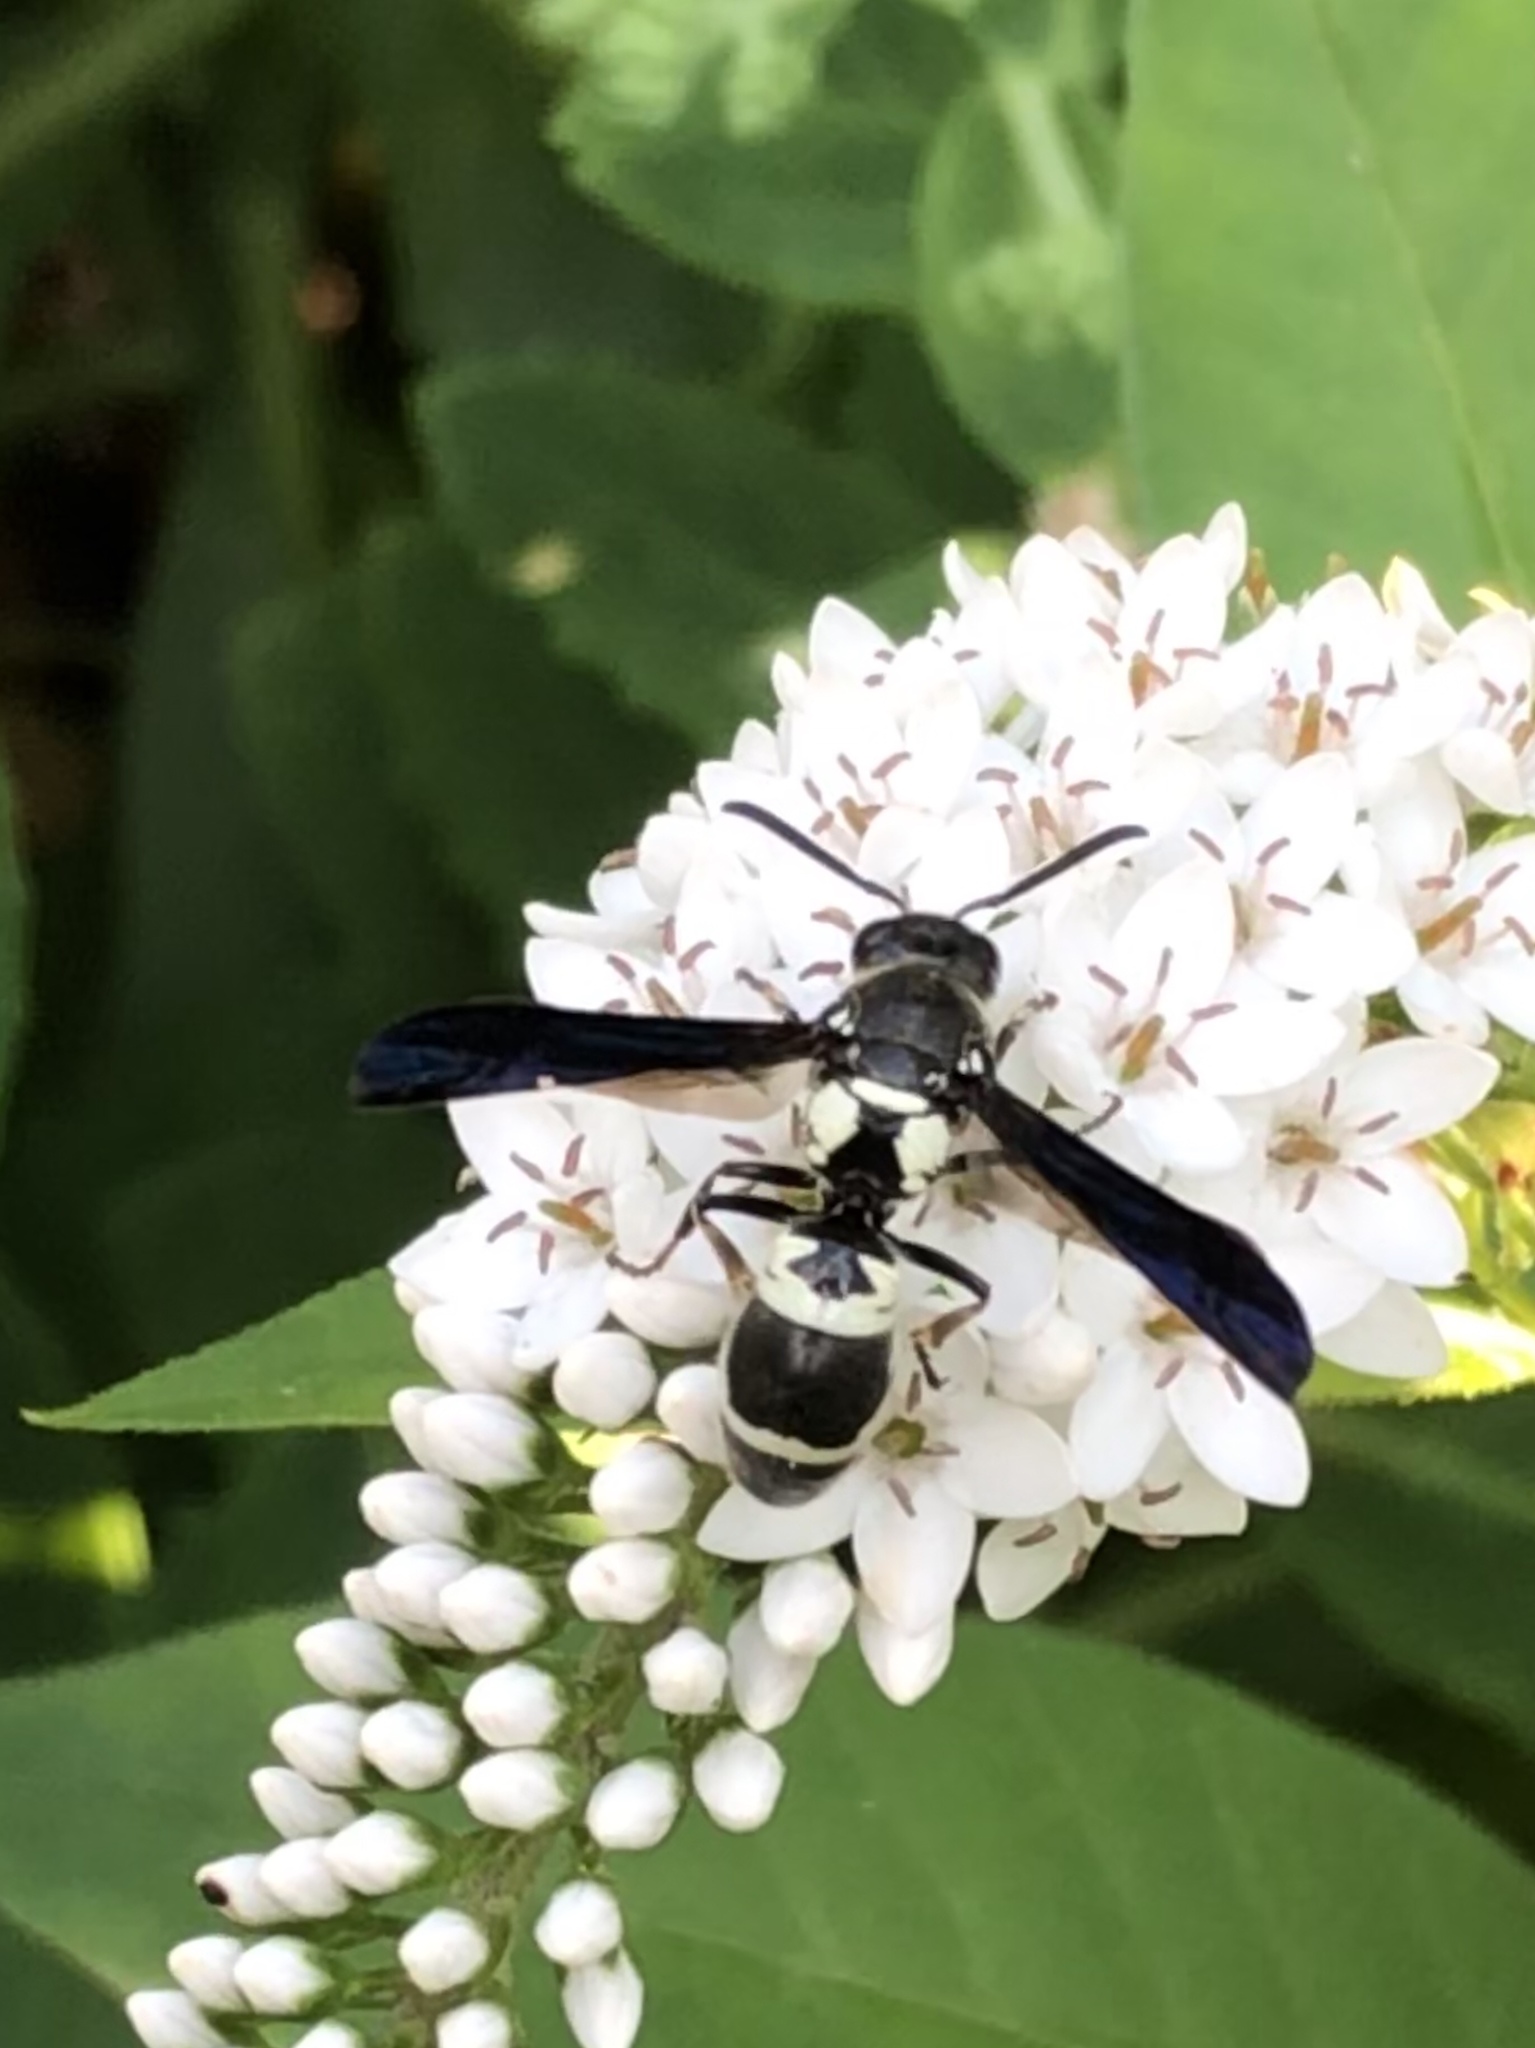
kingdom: Animalia
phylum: Arthropoda
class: Insecta
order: Hymenoptera
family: Eumenidae
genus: Pseudodynerus
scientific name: Pseudodynerus quadrisectus
